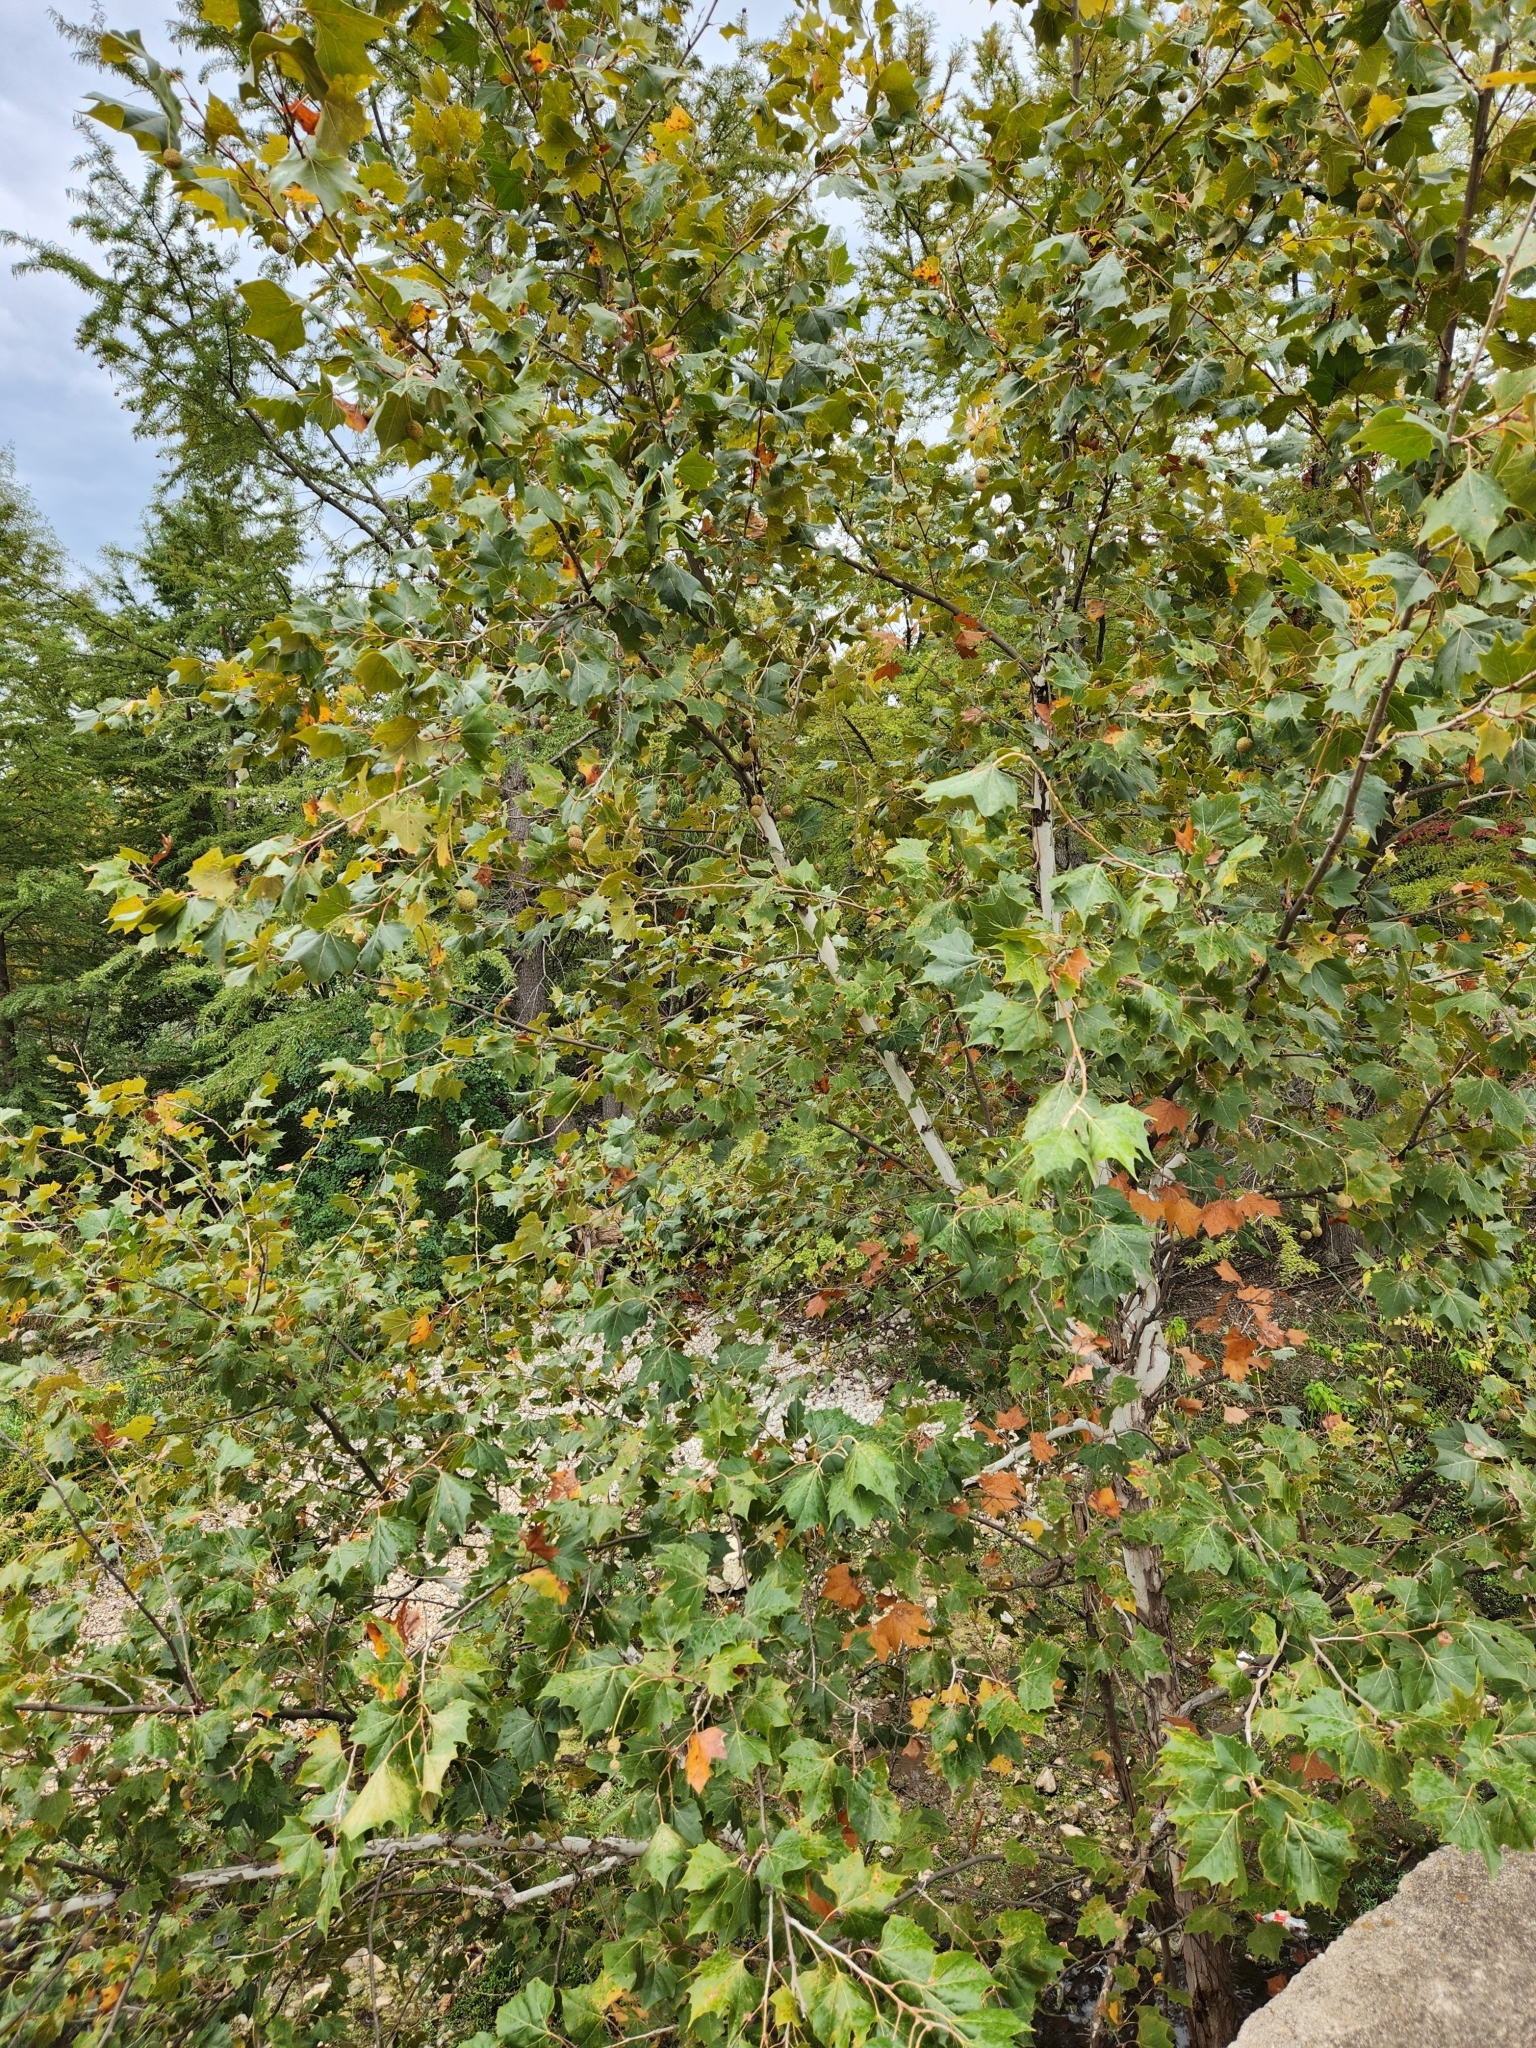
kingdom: Plantae
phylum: Tracheophyta
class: Magnoliopsida
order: Proteales
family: Platanaceae
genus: Platanus
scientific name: Platanus occidentalis
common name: American sycamore
